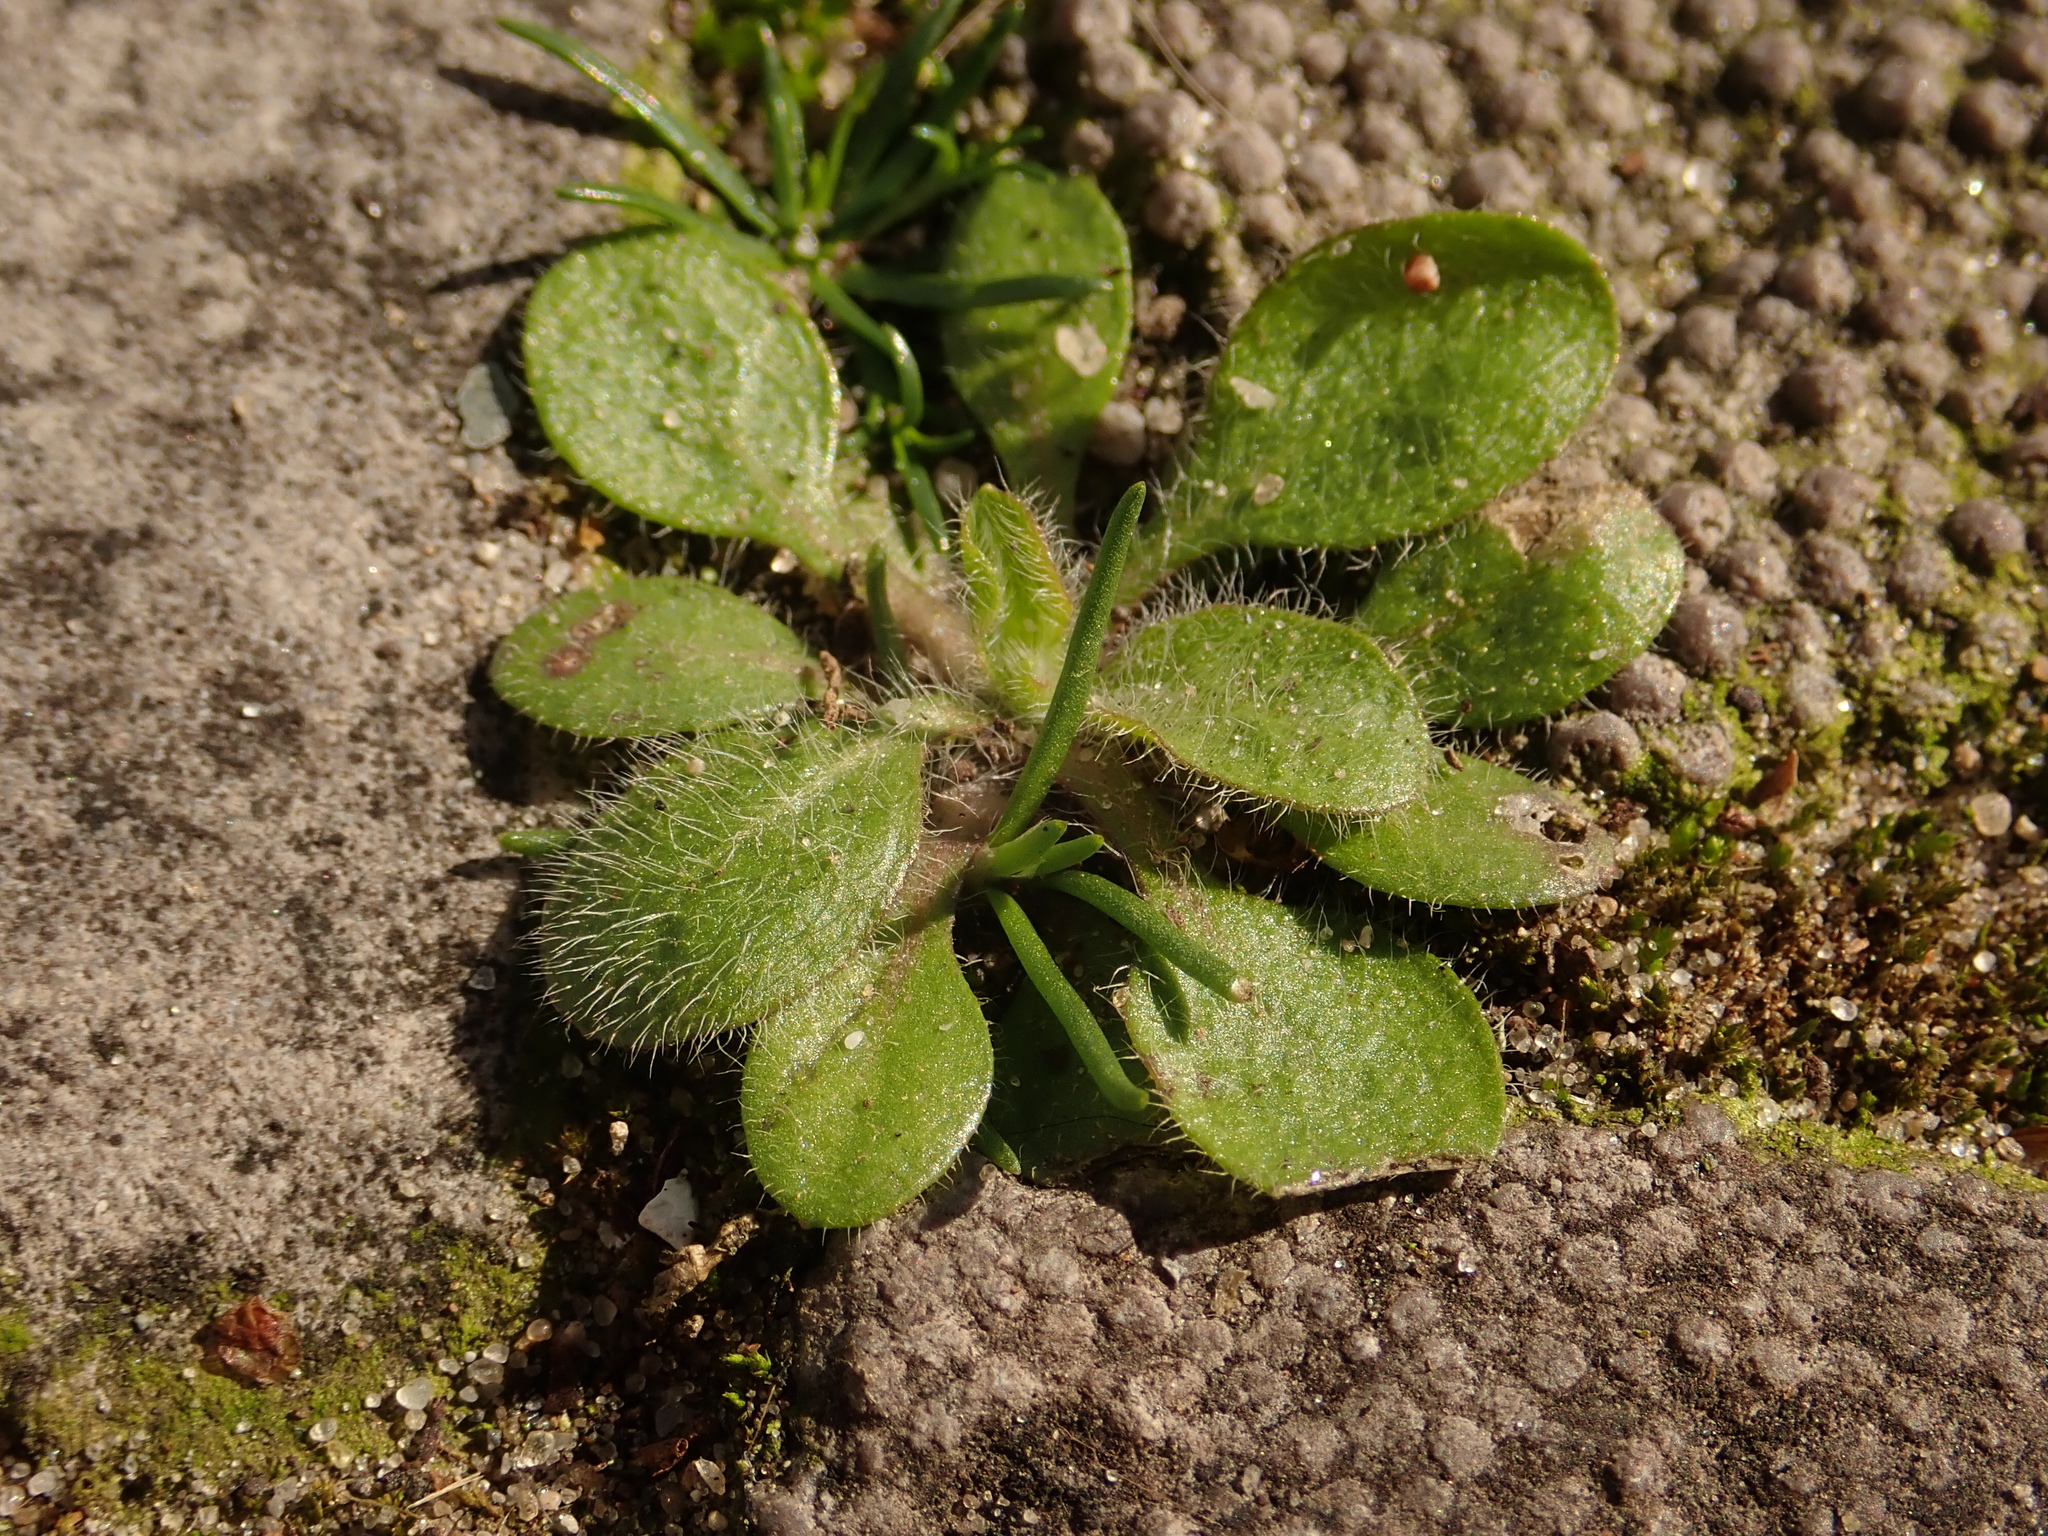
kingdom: Plantae
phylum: Tracheophyta
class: Magnoliopsida
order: Brassicales
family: Brassicaceae
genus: Arabidopsis
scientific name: Arabidopsis thaliana
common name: Thale cress
